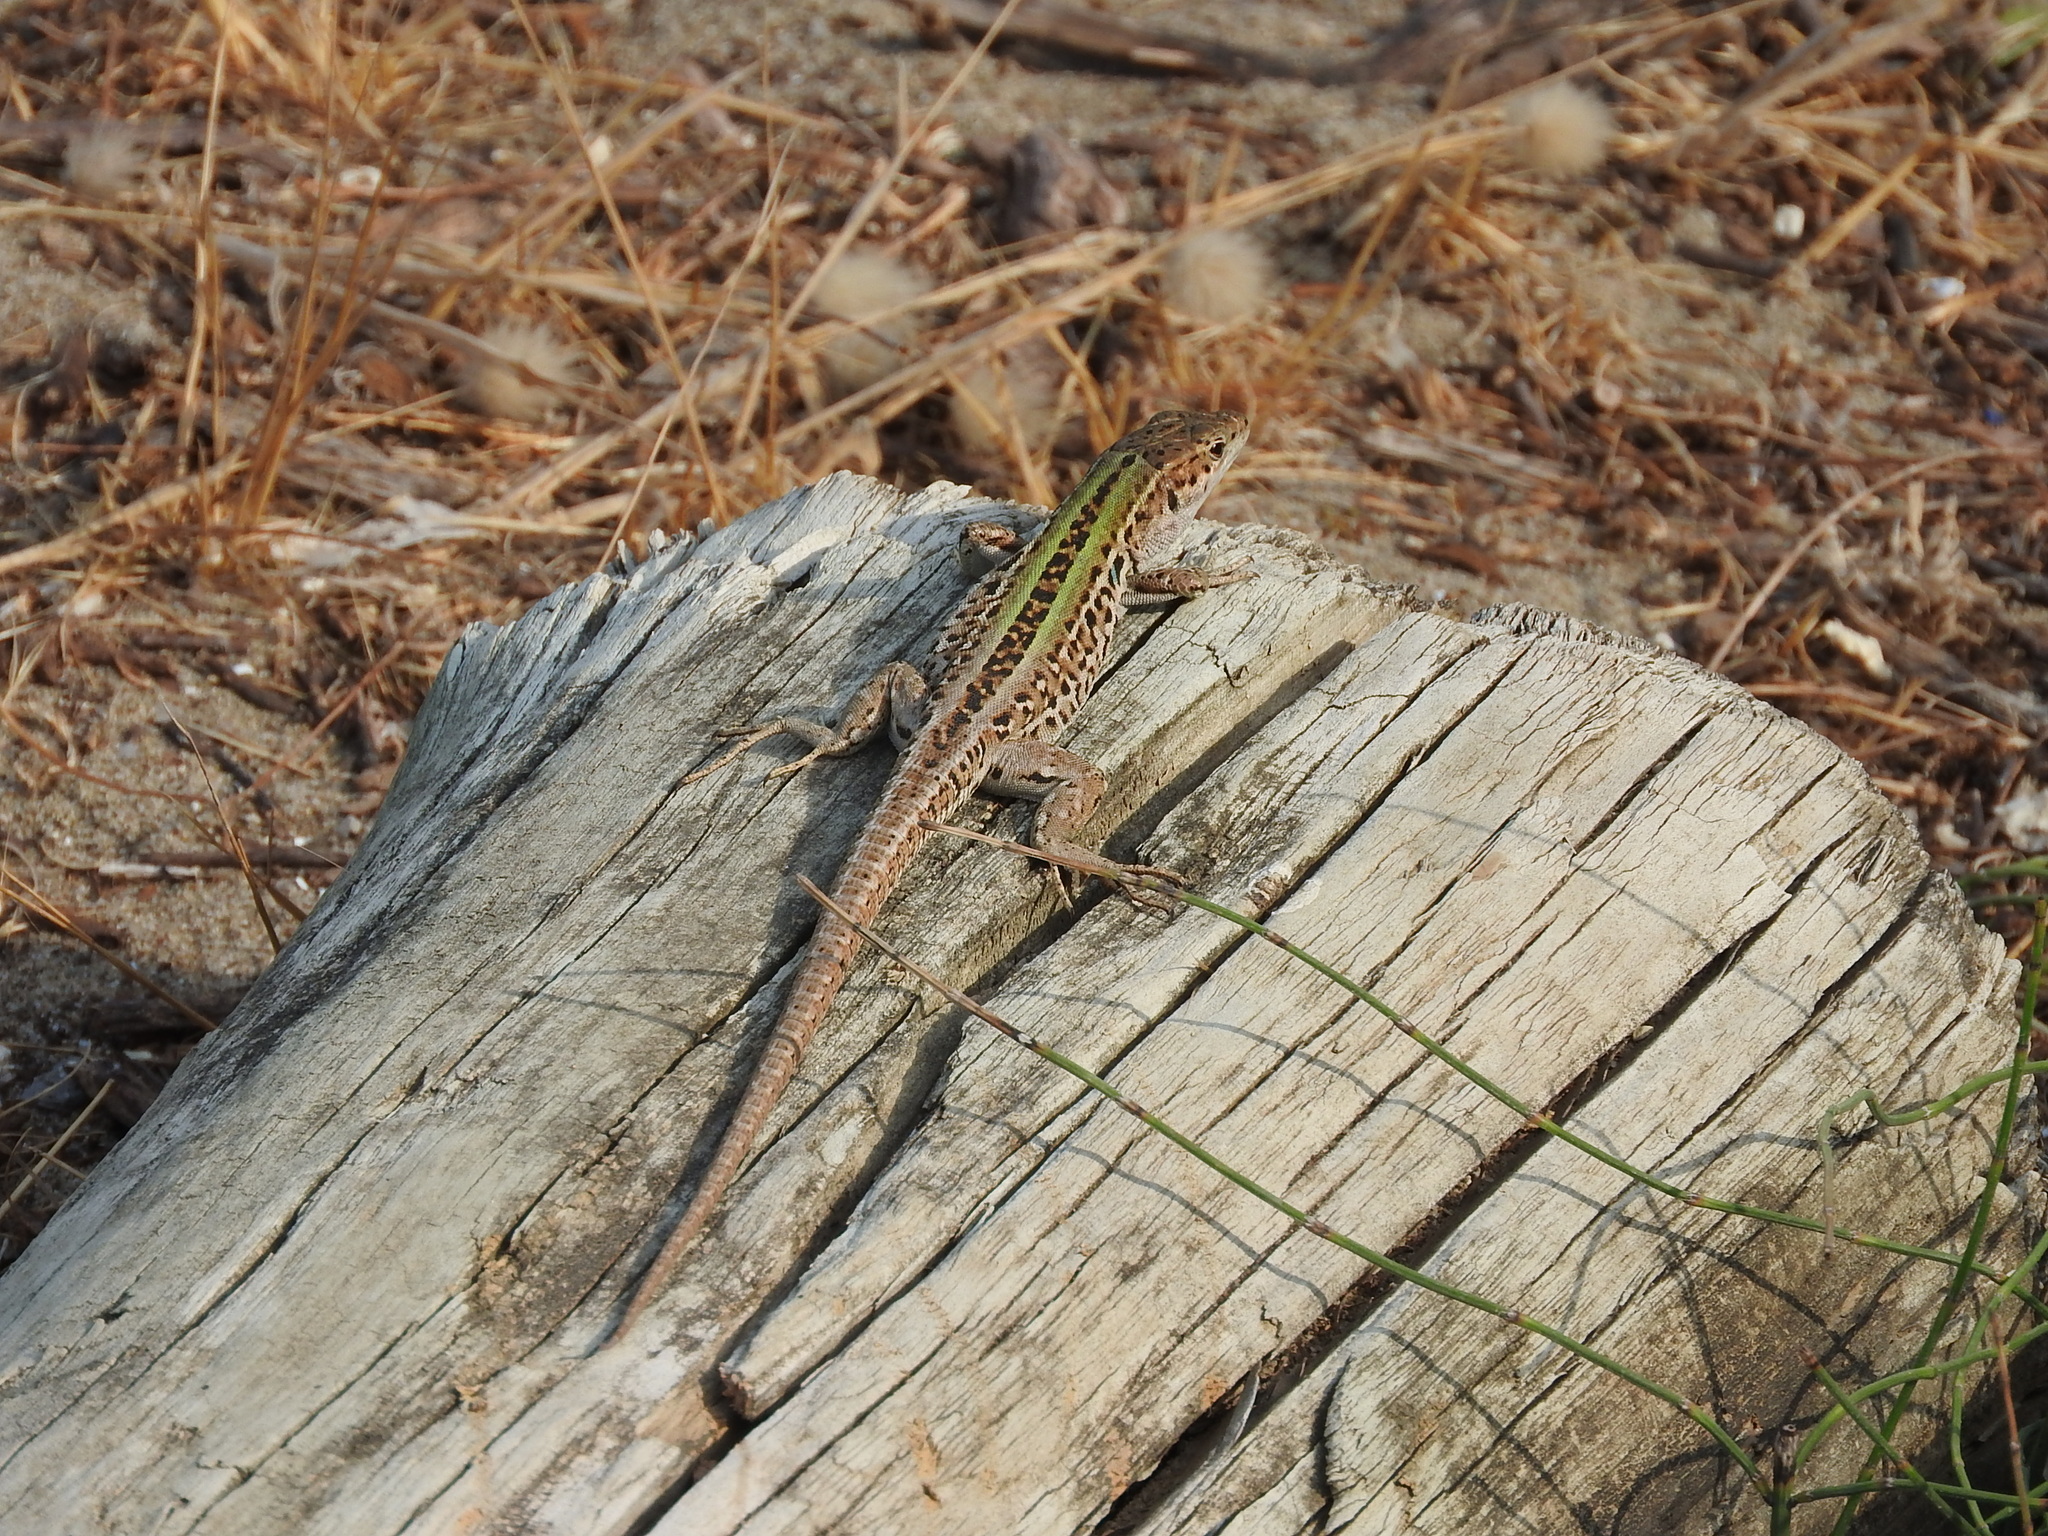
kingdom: Animalia
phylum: Chordata
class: Squamata
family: Lacertidae
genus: Podarcis
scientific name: Podarcis siculus
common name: Italian wall lizard
